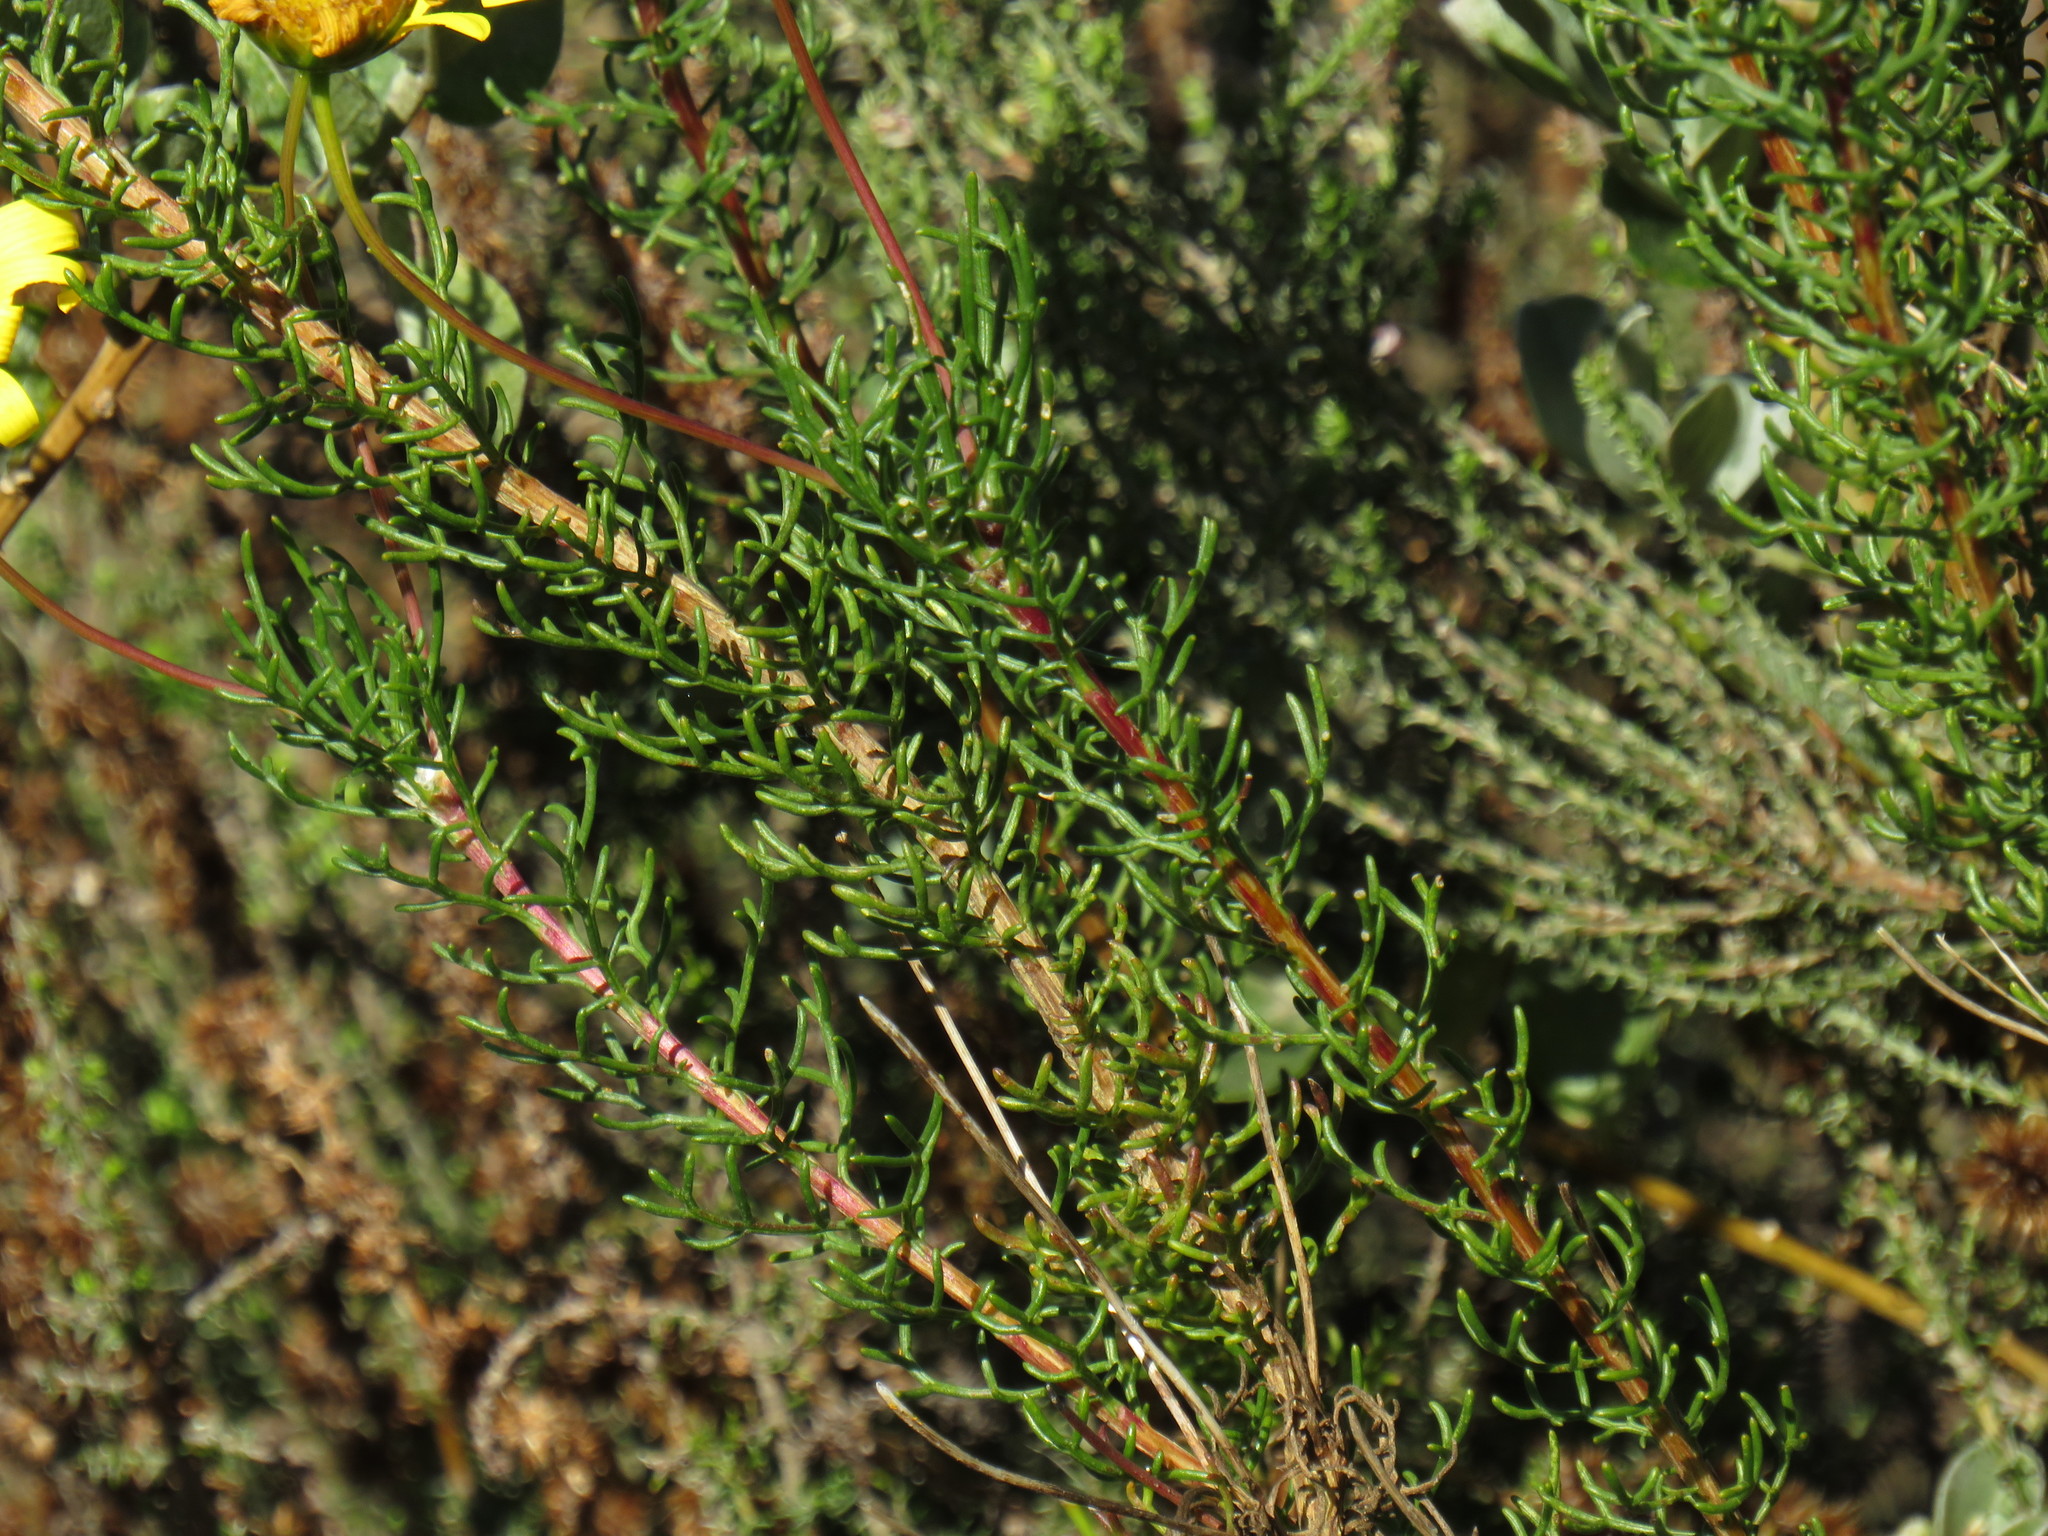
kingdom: Plantae
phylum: Tracheophyta
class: Magnoliopsida
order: Asterales
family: Asteraceae
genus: Euryops
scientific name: Euryops abrotanifolius
